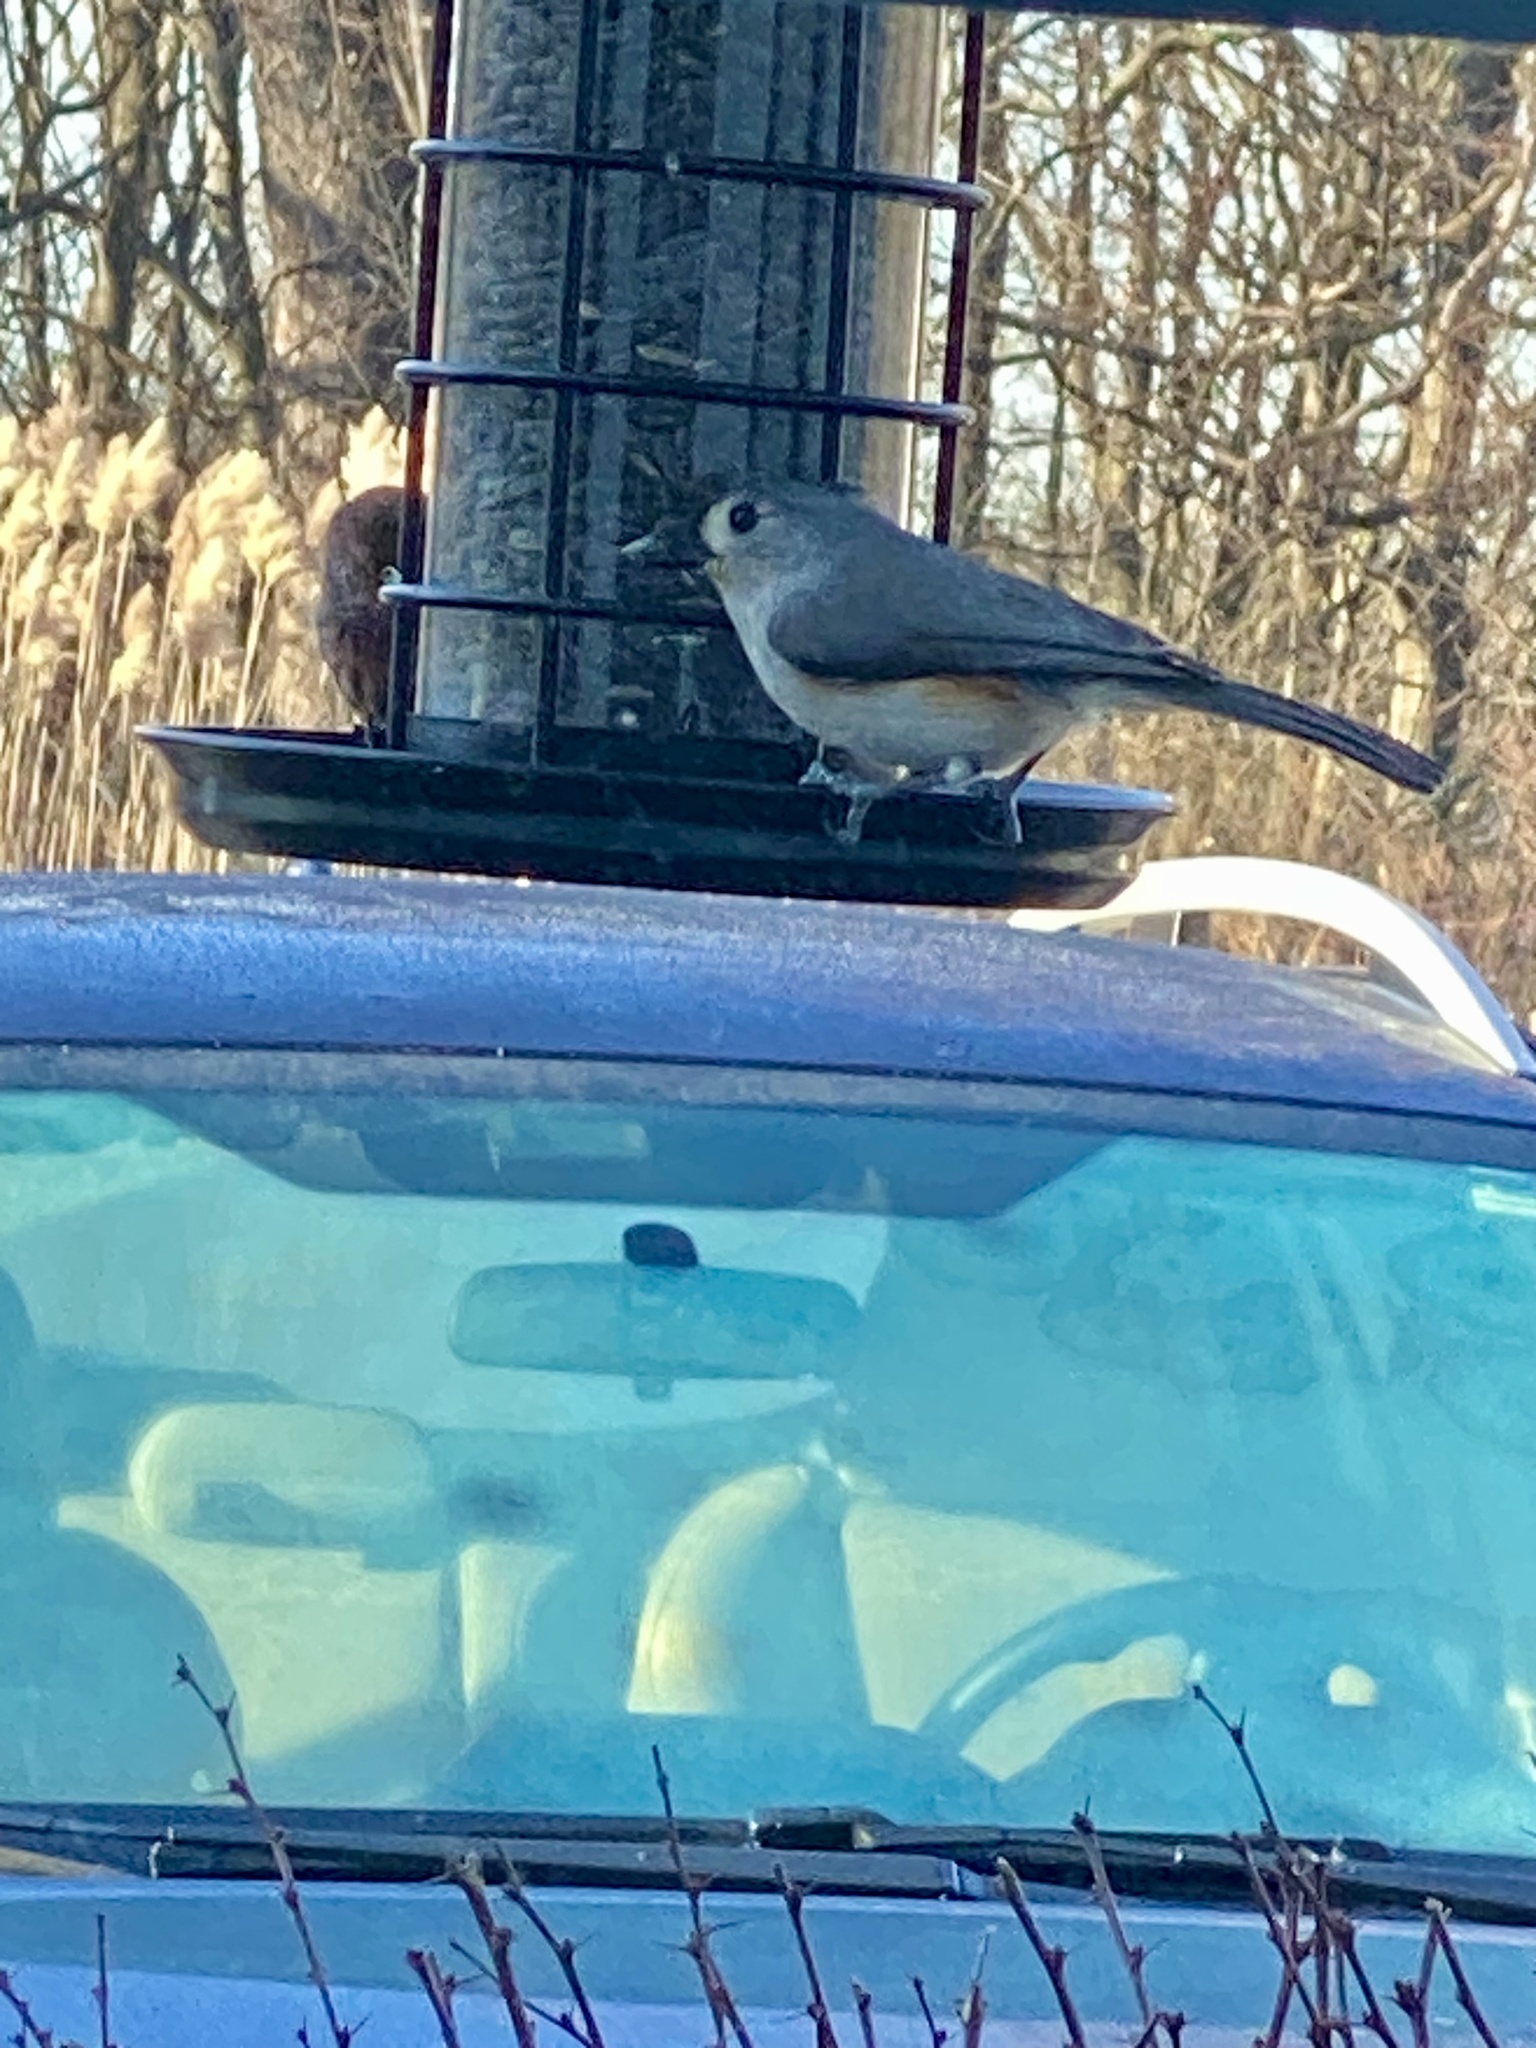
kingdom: Animalia
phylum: Chordata
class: Aves
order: Passeriformes
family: Paridae
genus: Baeolophus
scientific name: Baeolophus bicolor
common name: Tufted titmouse
